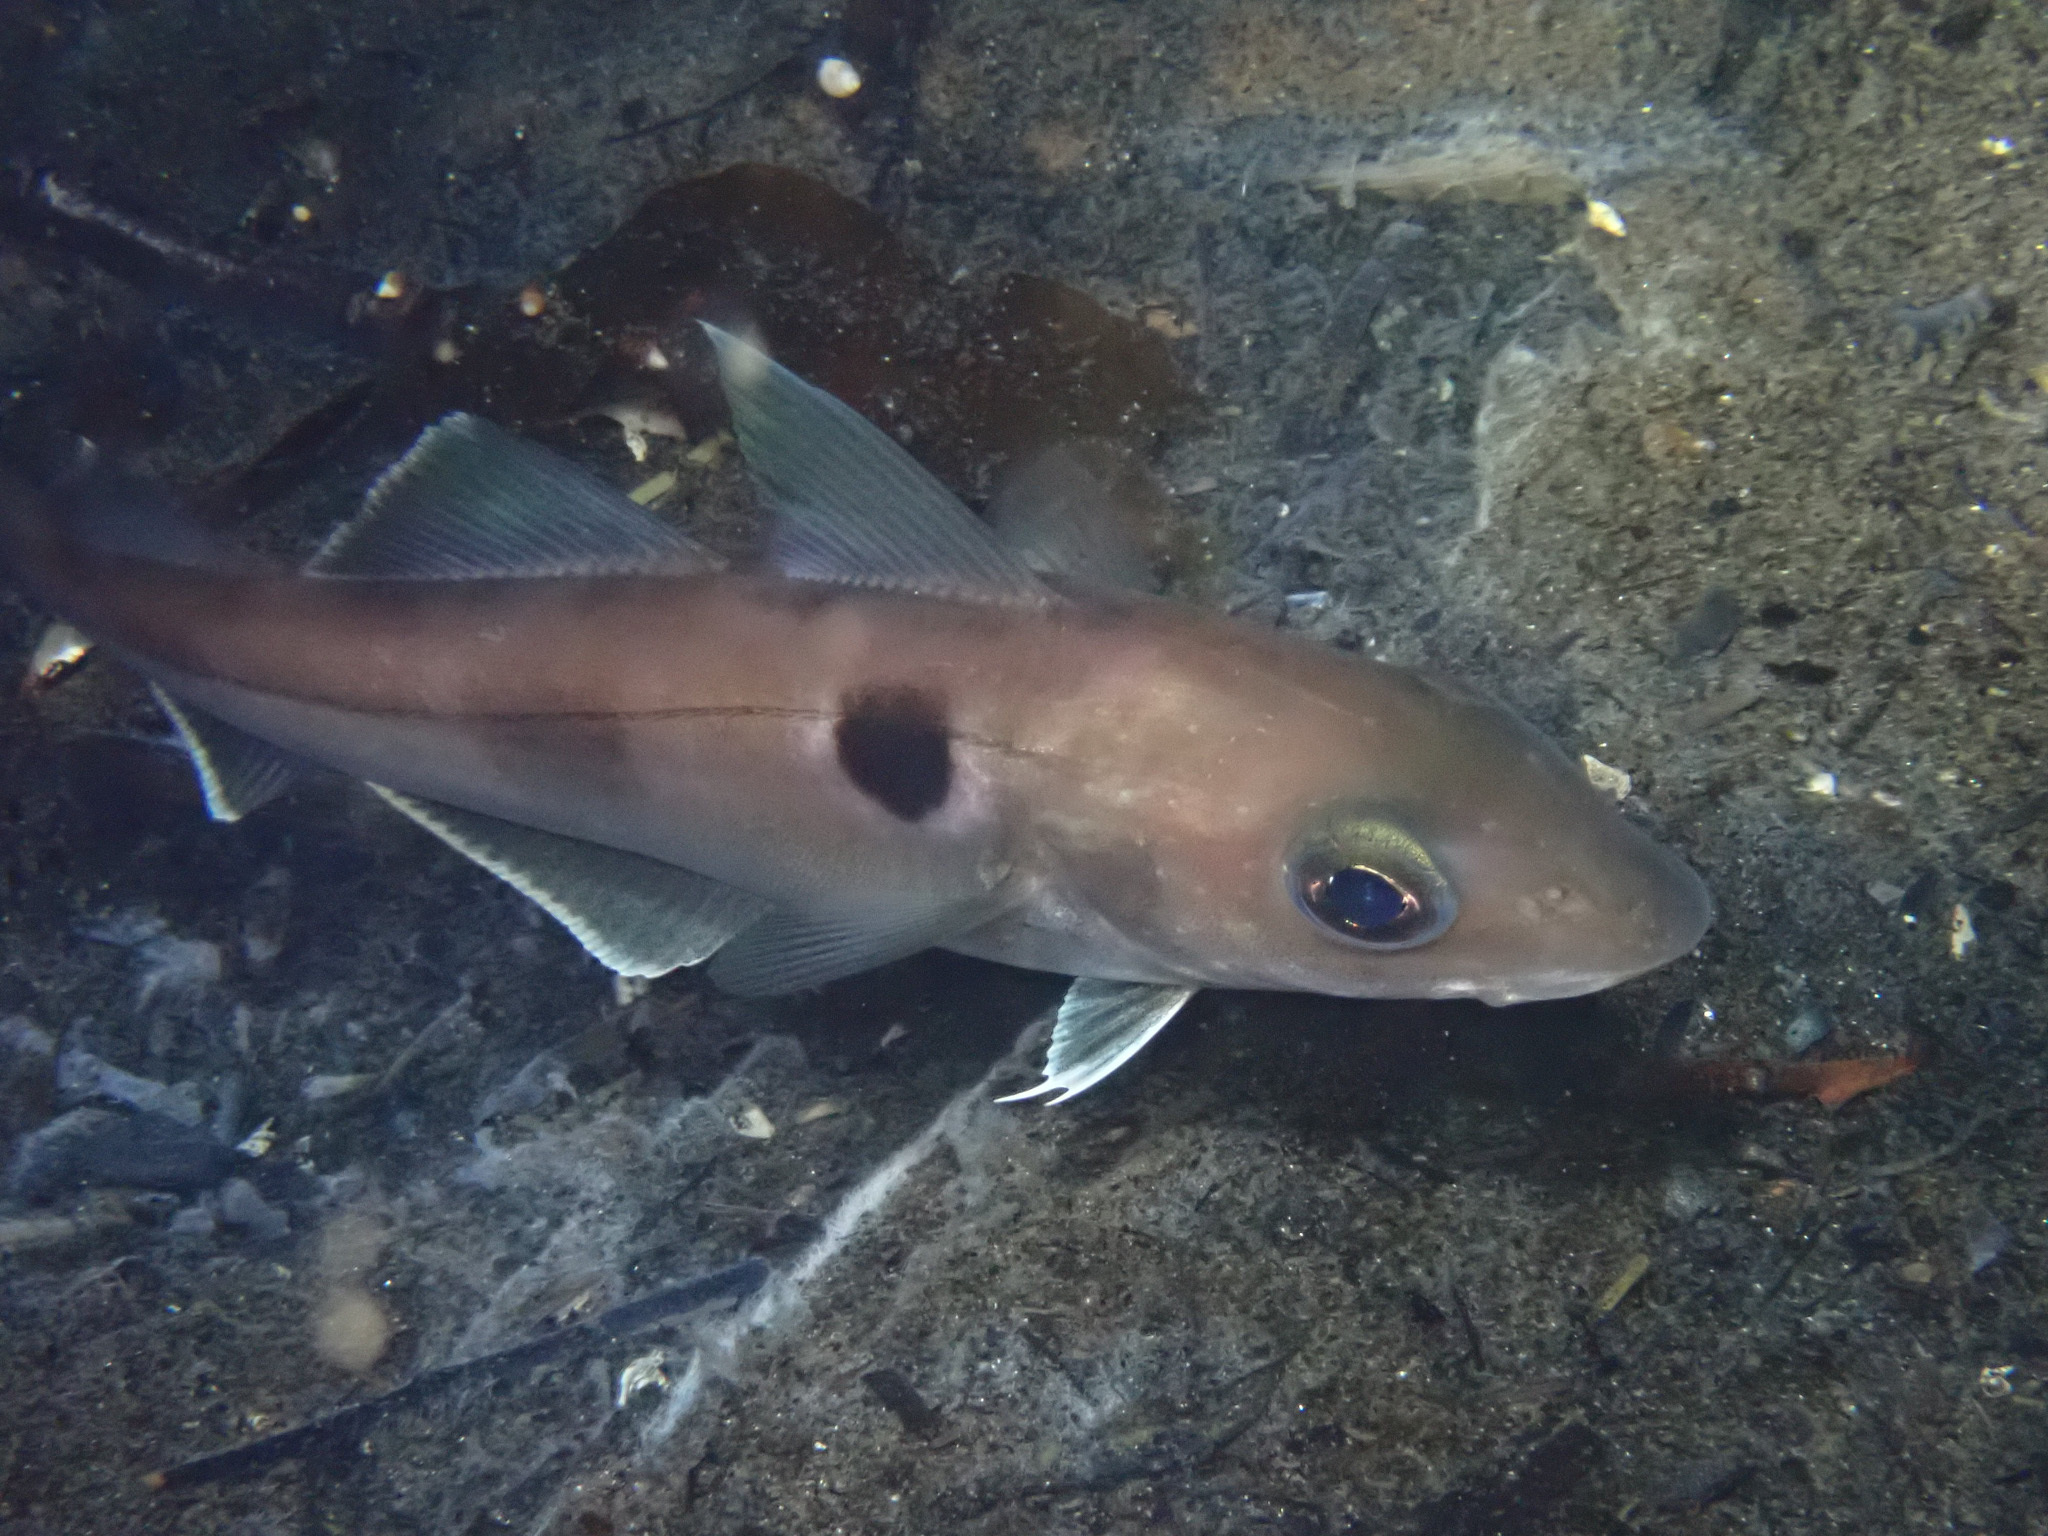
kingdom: Animalia
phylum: Chordata
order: Gadiformes
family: Gadidae
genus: Melanogrammus
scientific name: Melanogrammus aeglefinus
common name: Haddock
